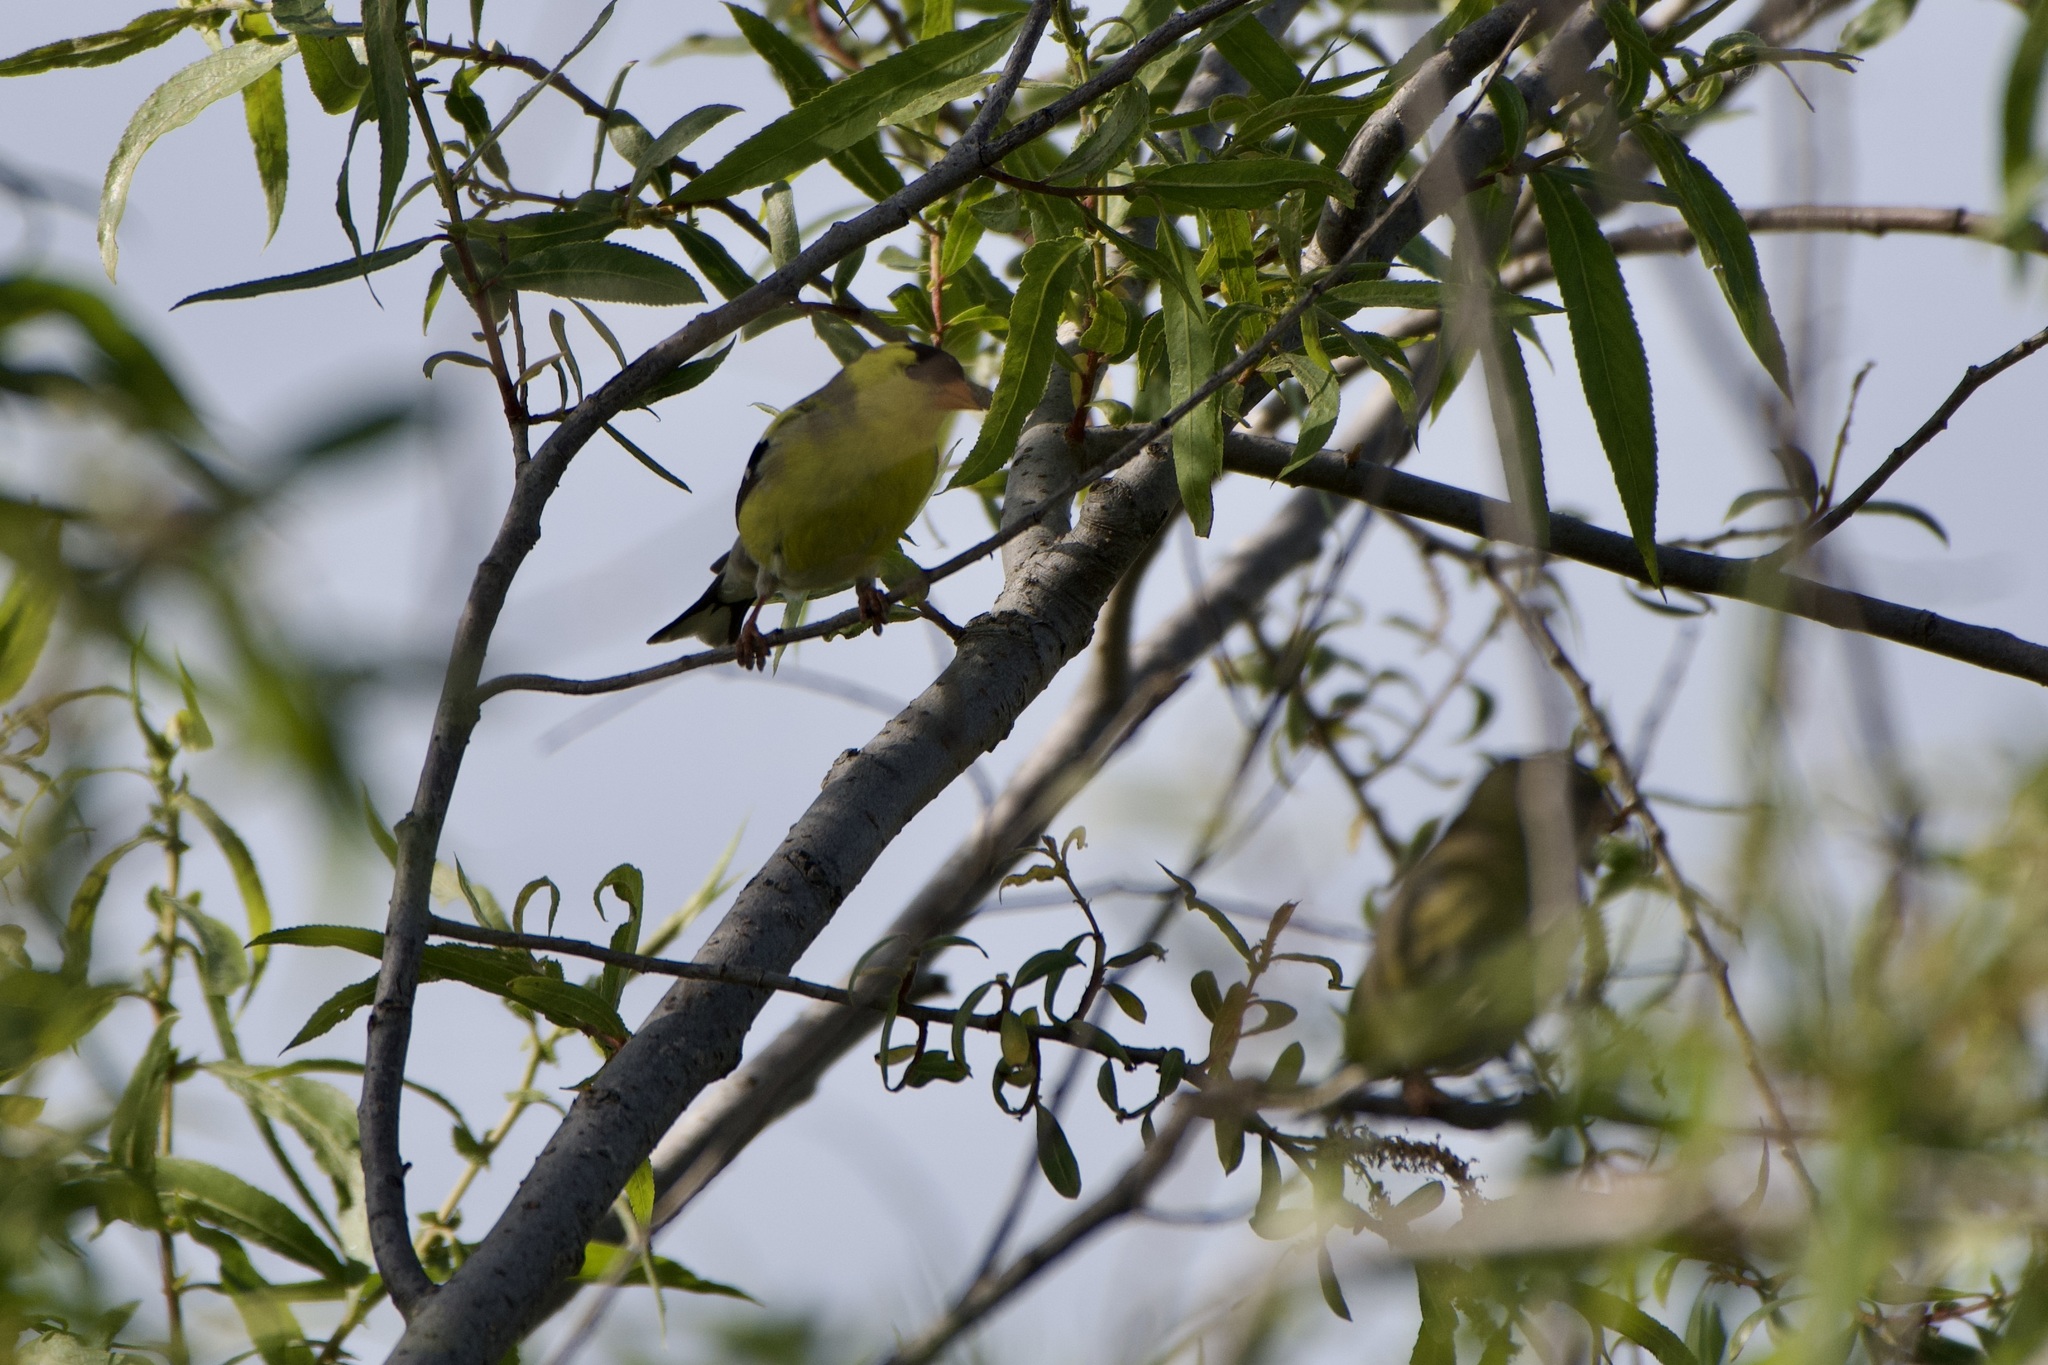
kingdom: Animalia
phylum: Chordata
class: Aves
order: Passeriformes
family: Fringillidae
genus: Spinus
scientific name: Spinus tristis
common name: American goldfinch
